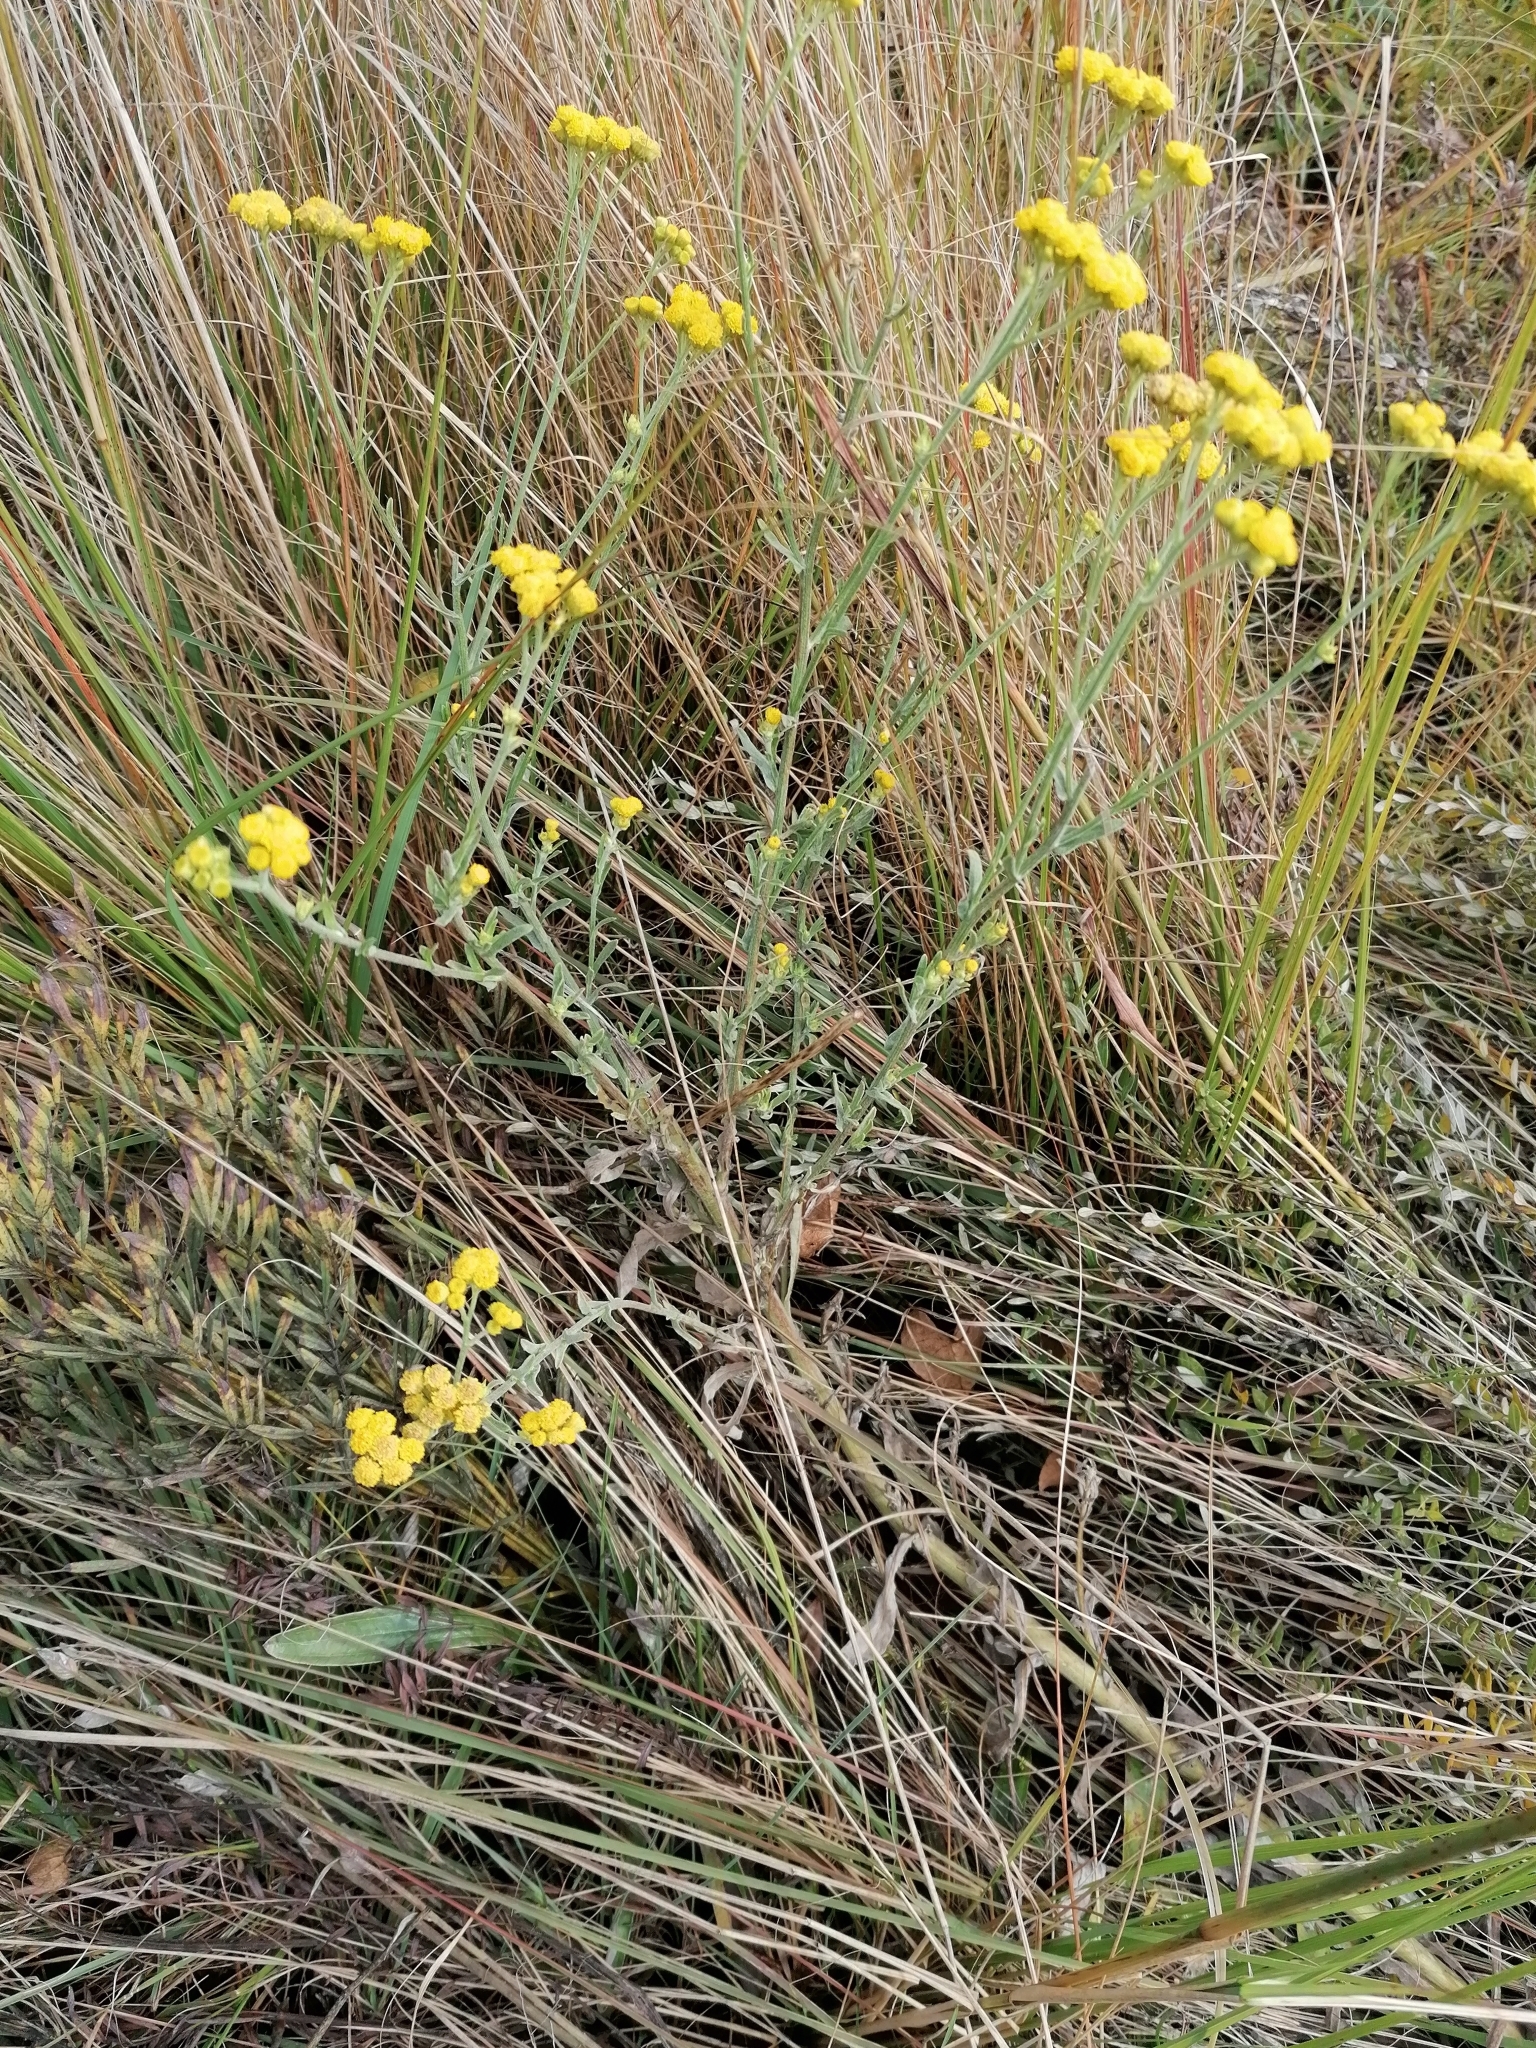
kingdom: Plantae
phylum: Tracheophyta
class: Magnoliopsida
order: Asterales
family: Asteraceae
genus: Nidorella
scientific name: Nidorella hottentotica
